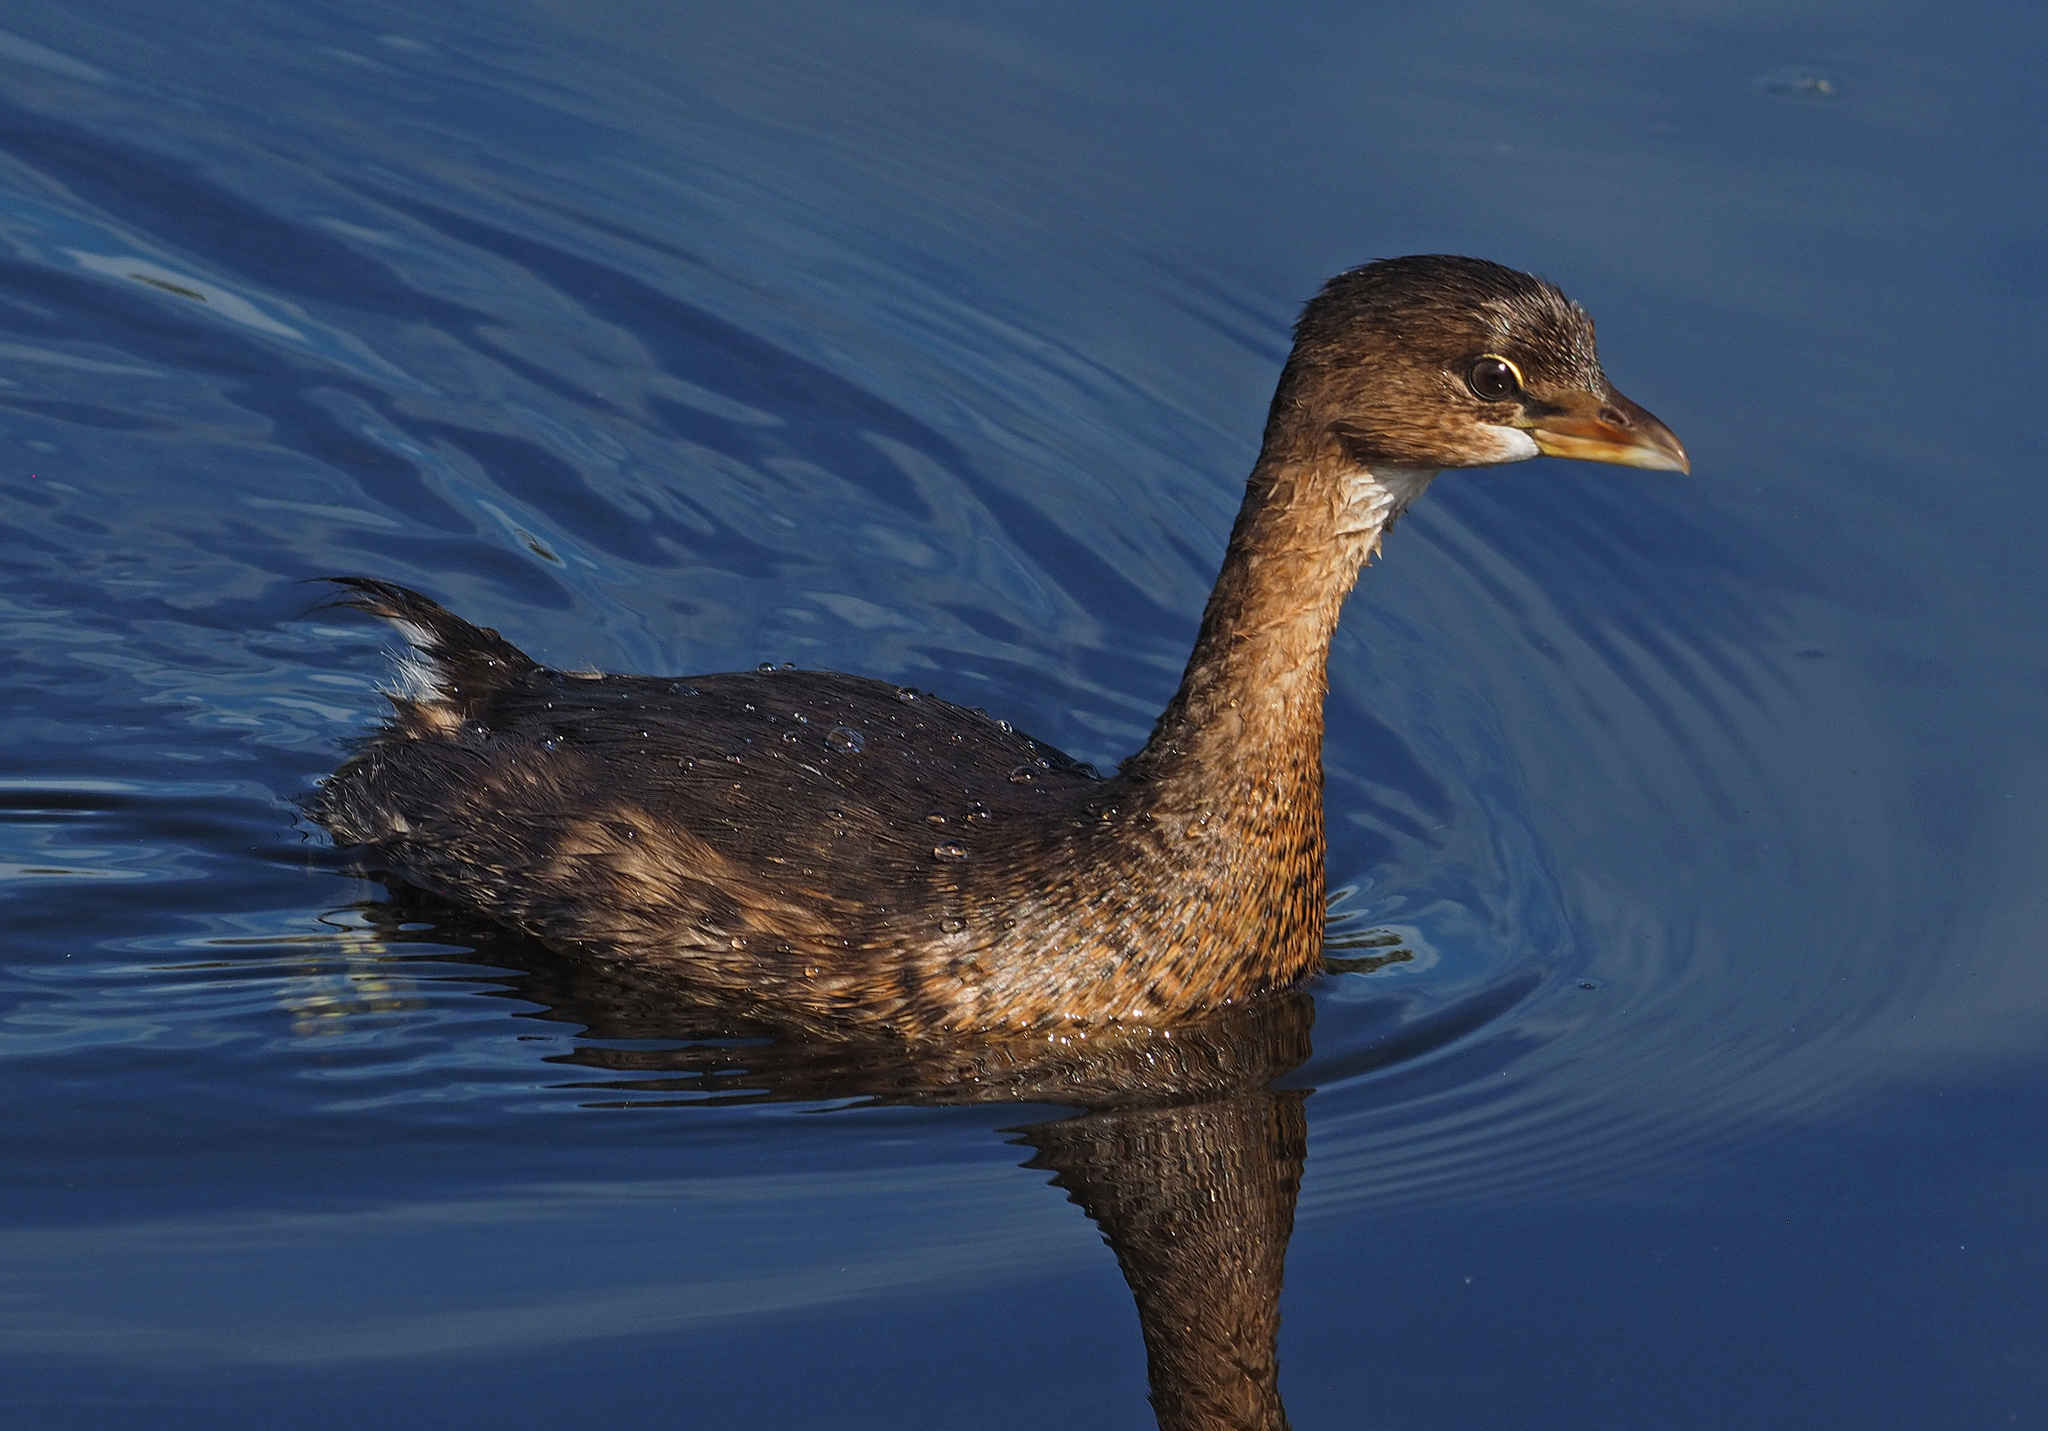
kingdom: Animalia
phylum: Chordata
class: Aves
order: Podicipediformes
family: Podicipedidae
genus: Podilymbus
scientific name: Podilymbus podiceps
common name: Pied-billed grebe
